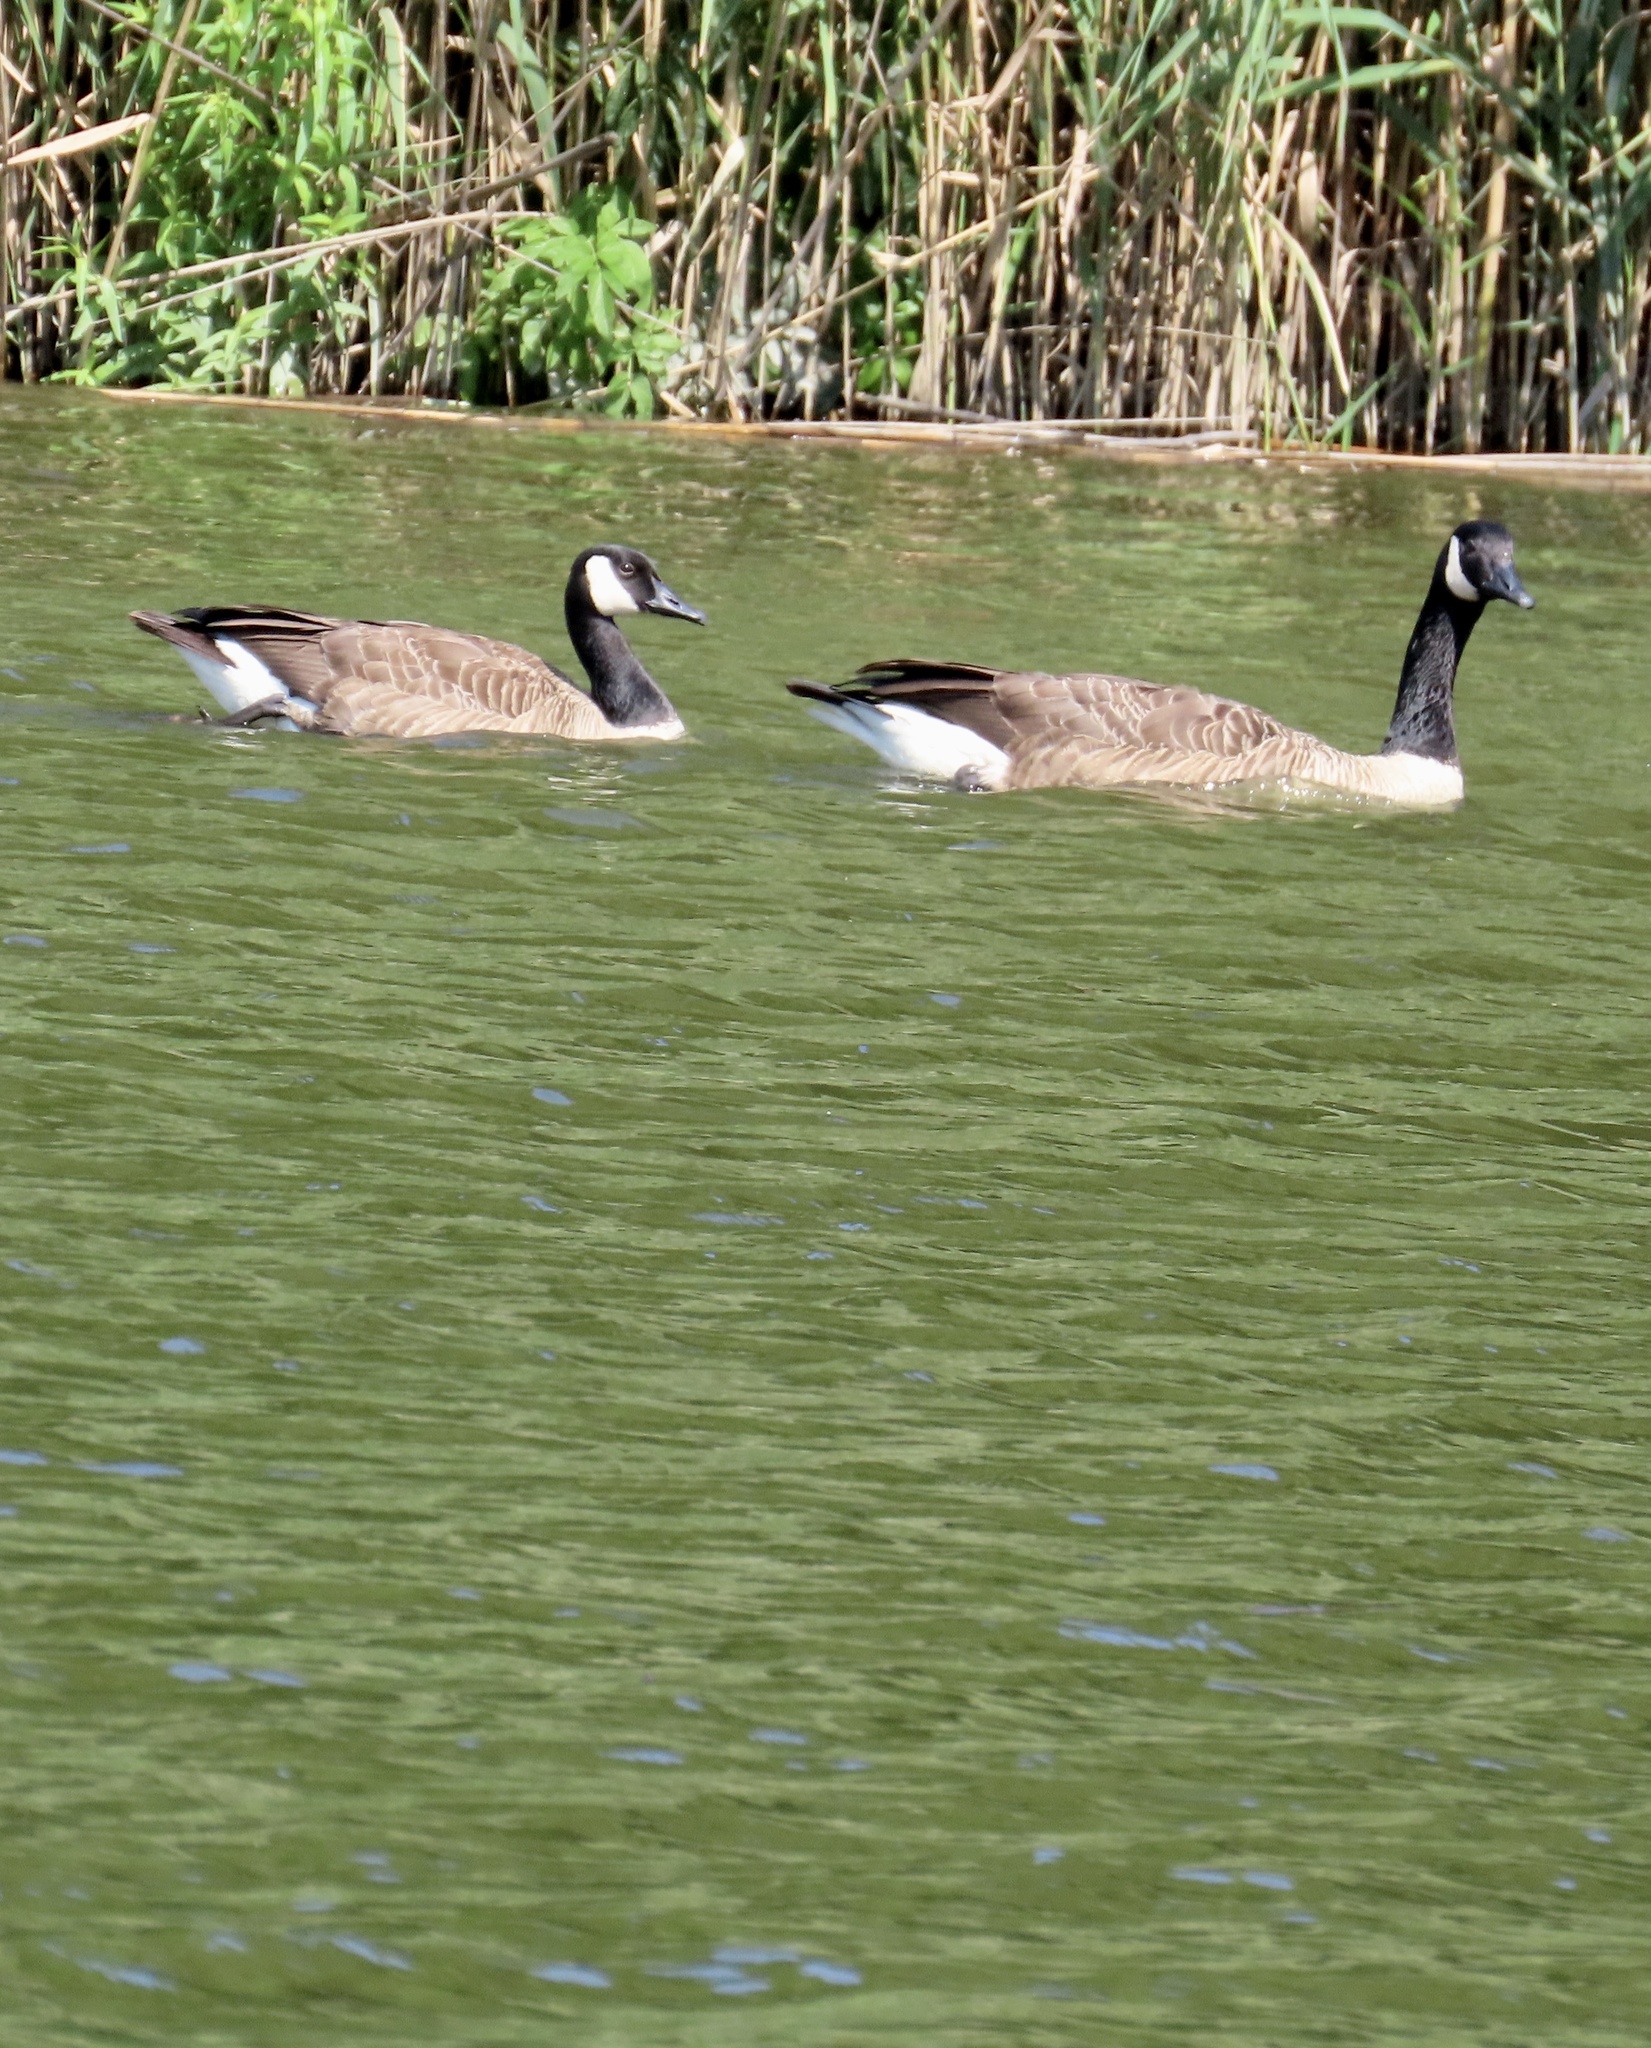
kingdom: Animalia
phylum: Chordata
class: Aves
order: Anseriformes
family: Anatidae
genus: Branta
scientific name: Branta canadensis
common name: Canada goose
